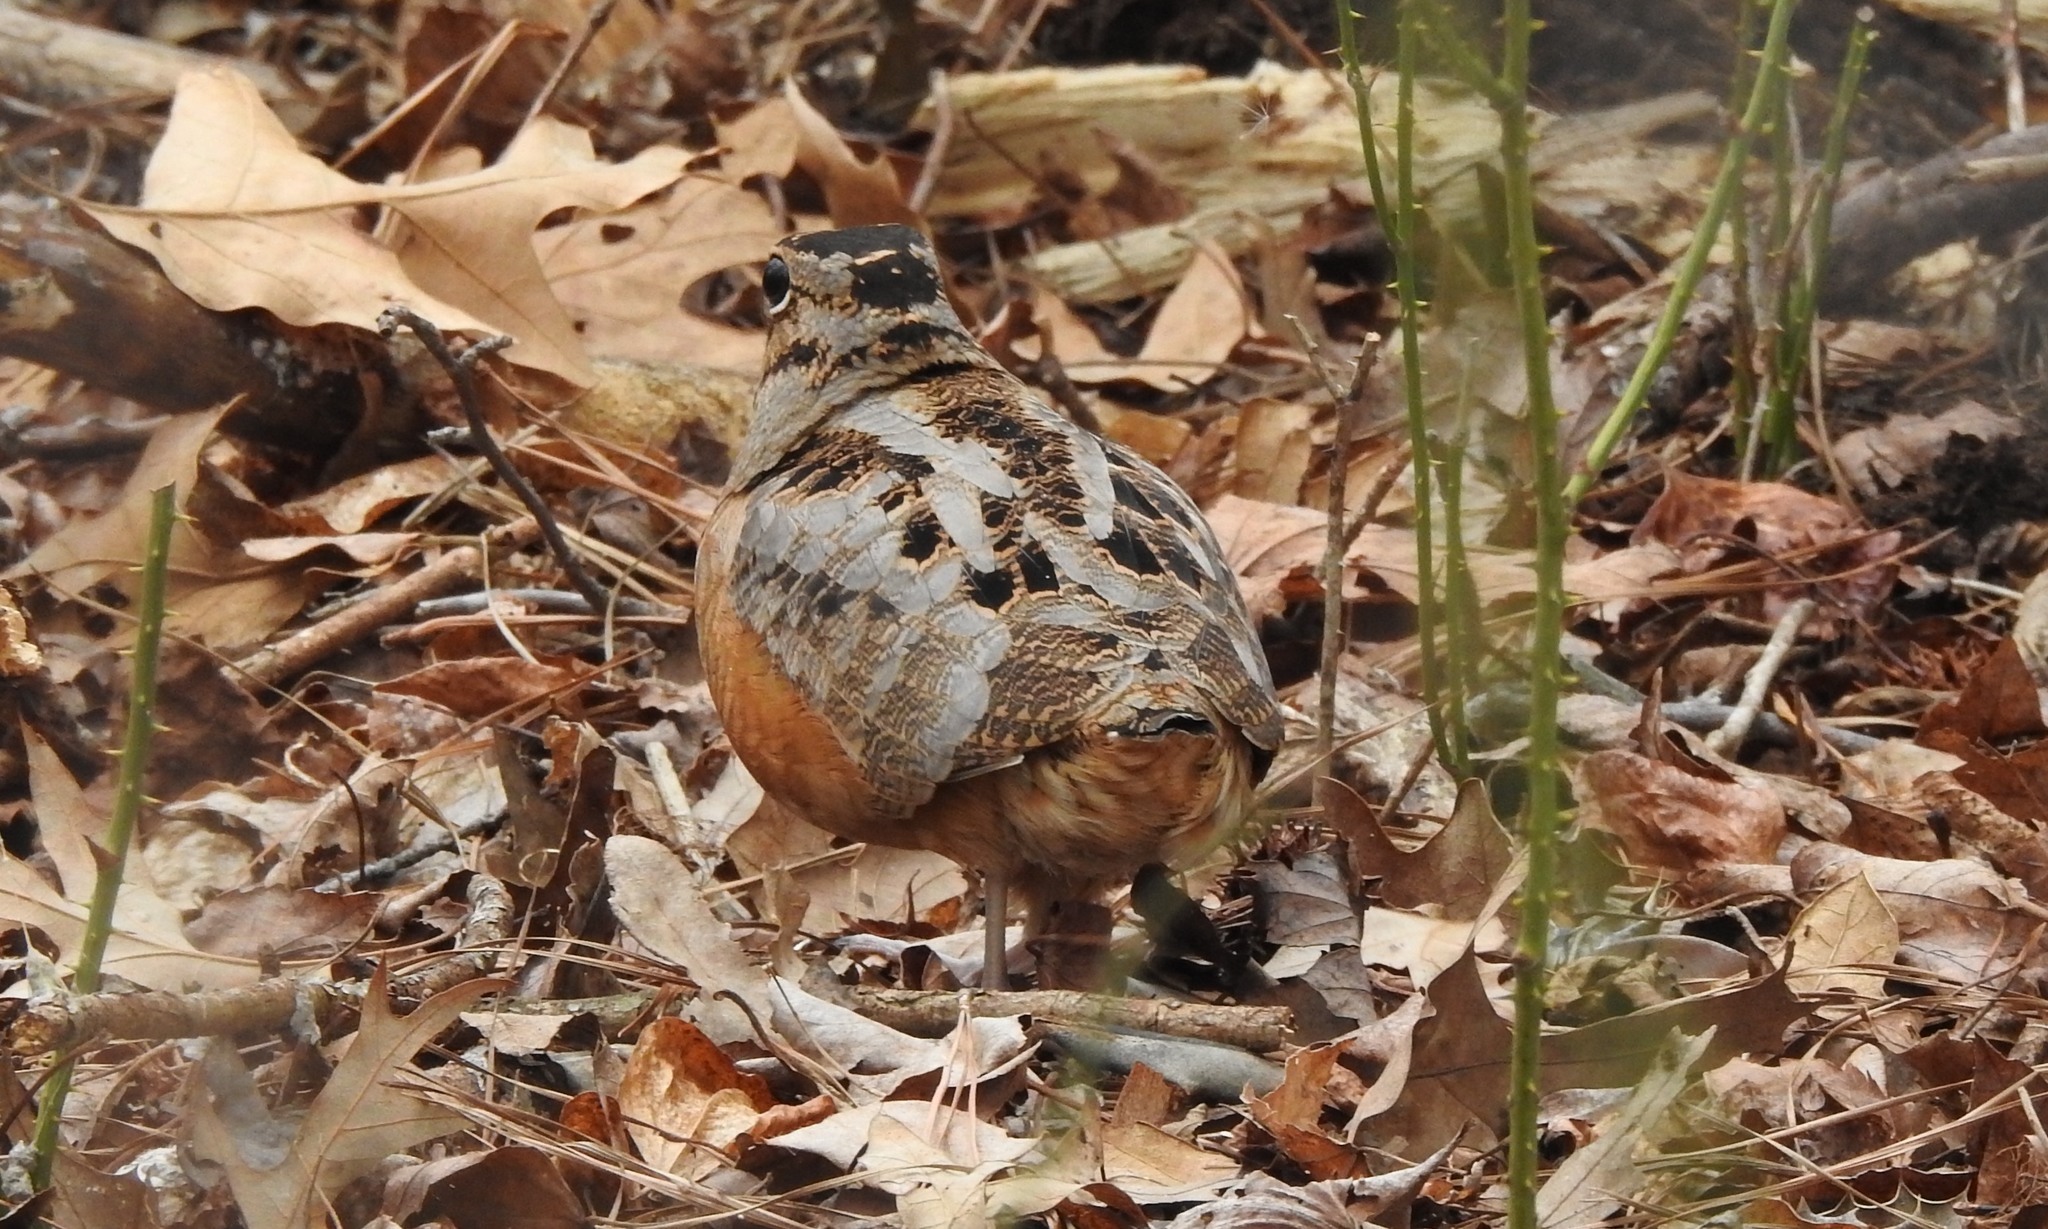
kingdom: Animalia
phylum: Chordata
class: Aves
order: Charadriiformes
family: Scolopacidae
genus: Scolopax
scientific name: Scolopax minor
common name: American woodcock
